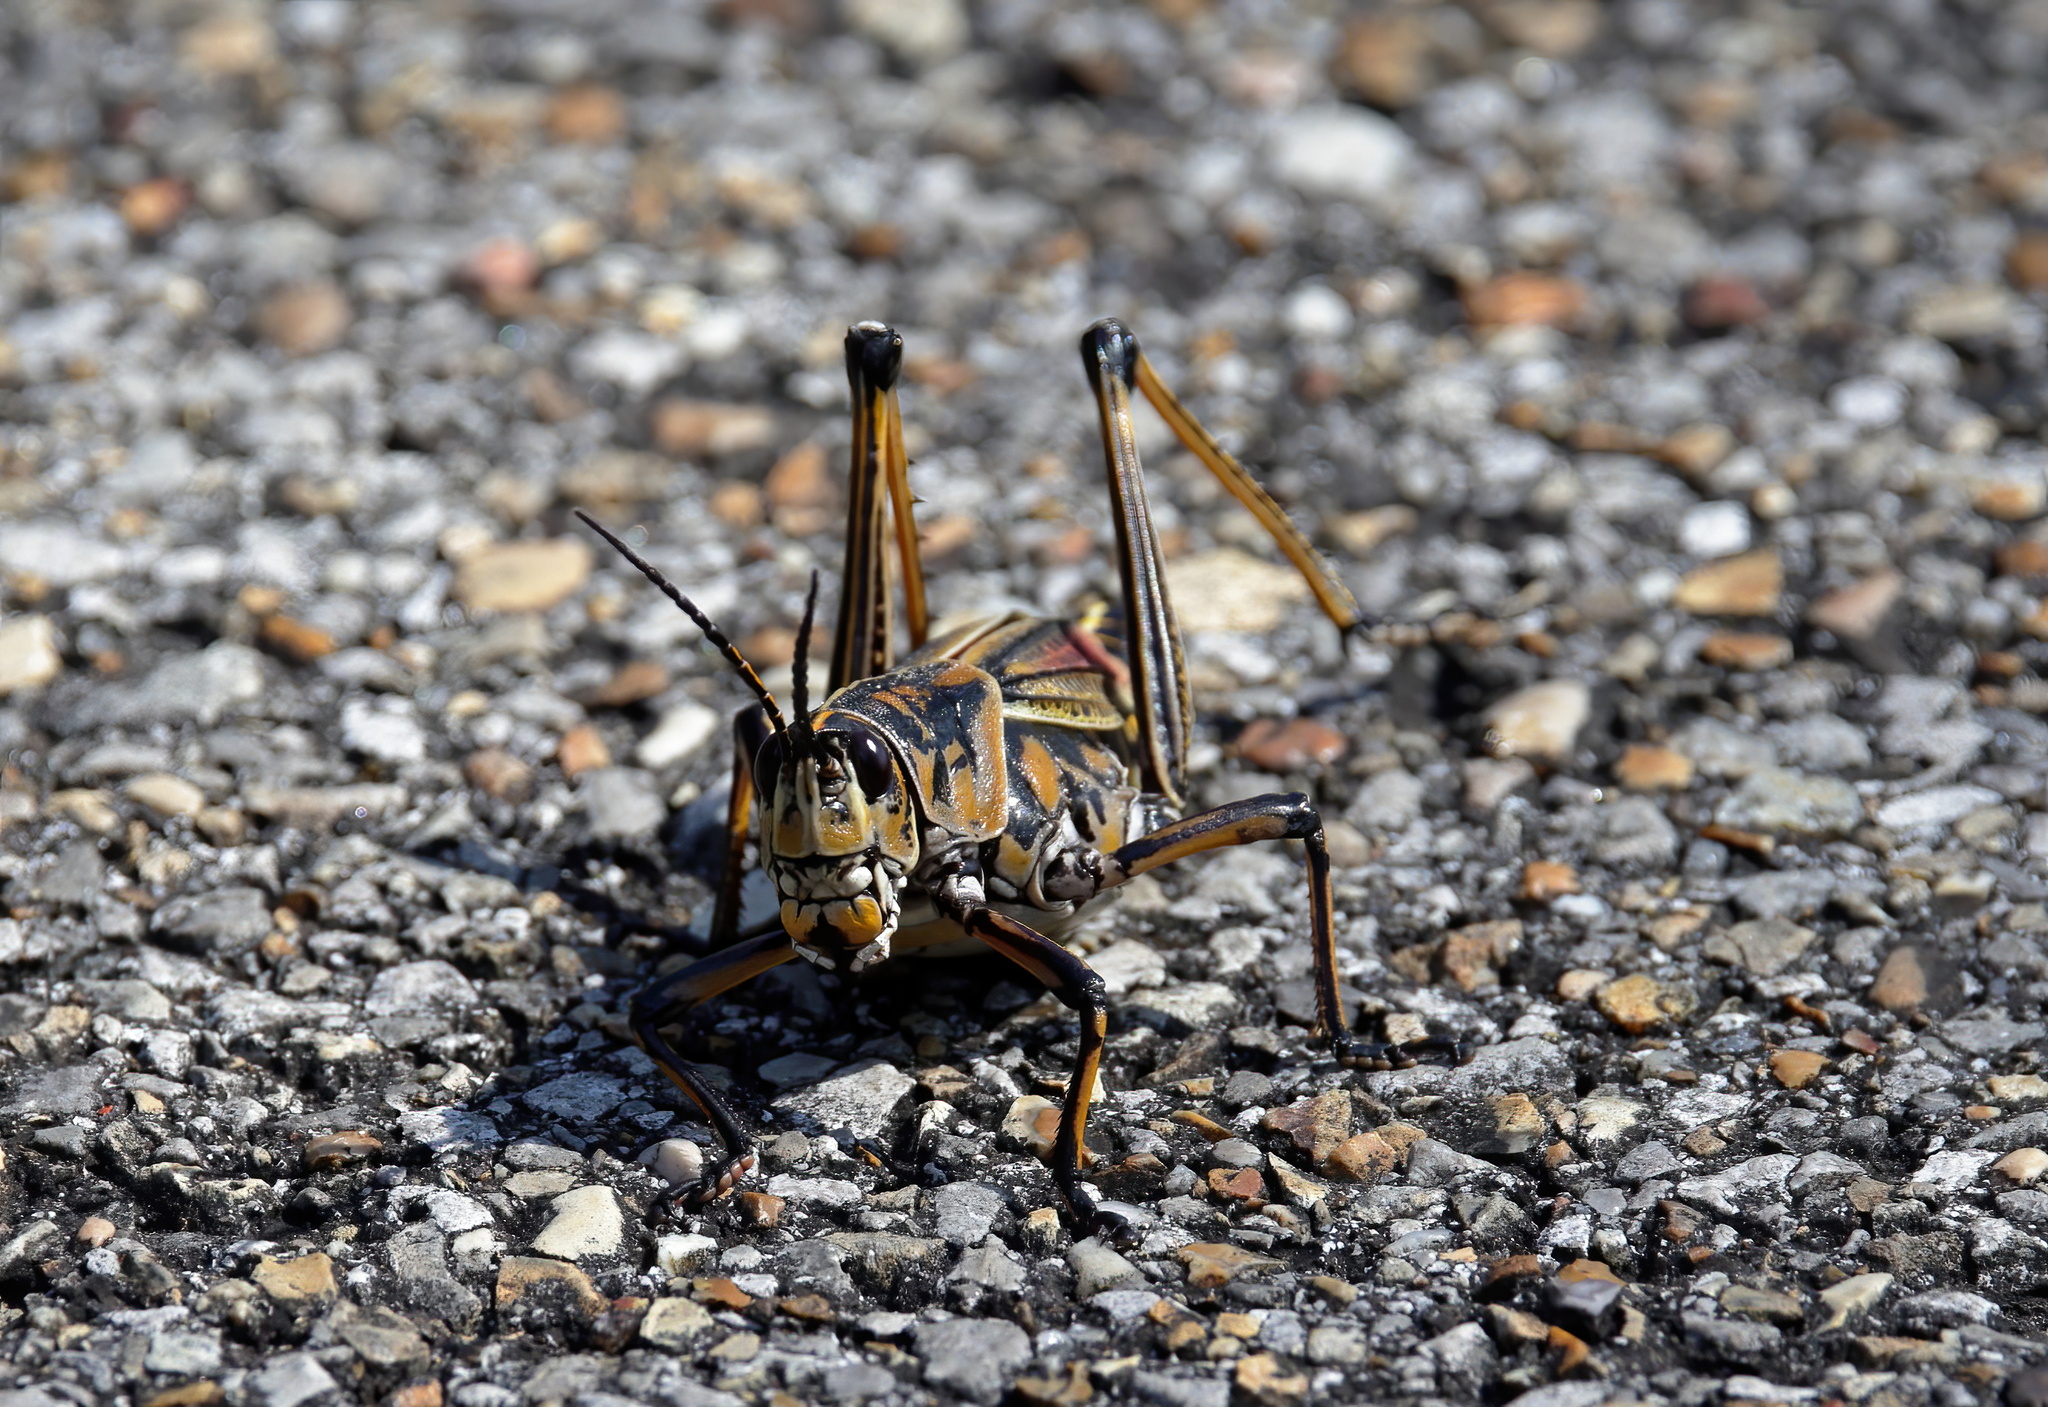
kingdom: Animalia
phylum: Arthropoda
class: Insecta
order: Orthoptera
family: Romaleidae
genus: Romalea
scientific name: Romalea microptera
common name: Eastern lubber grasshopper
